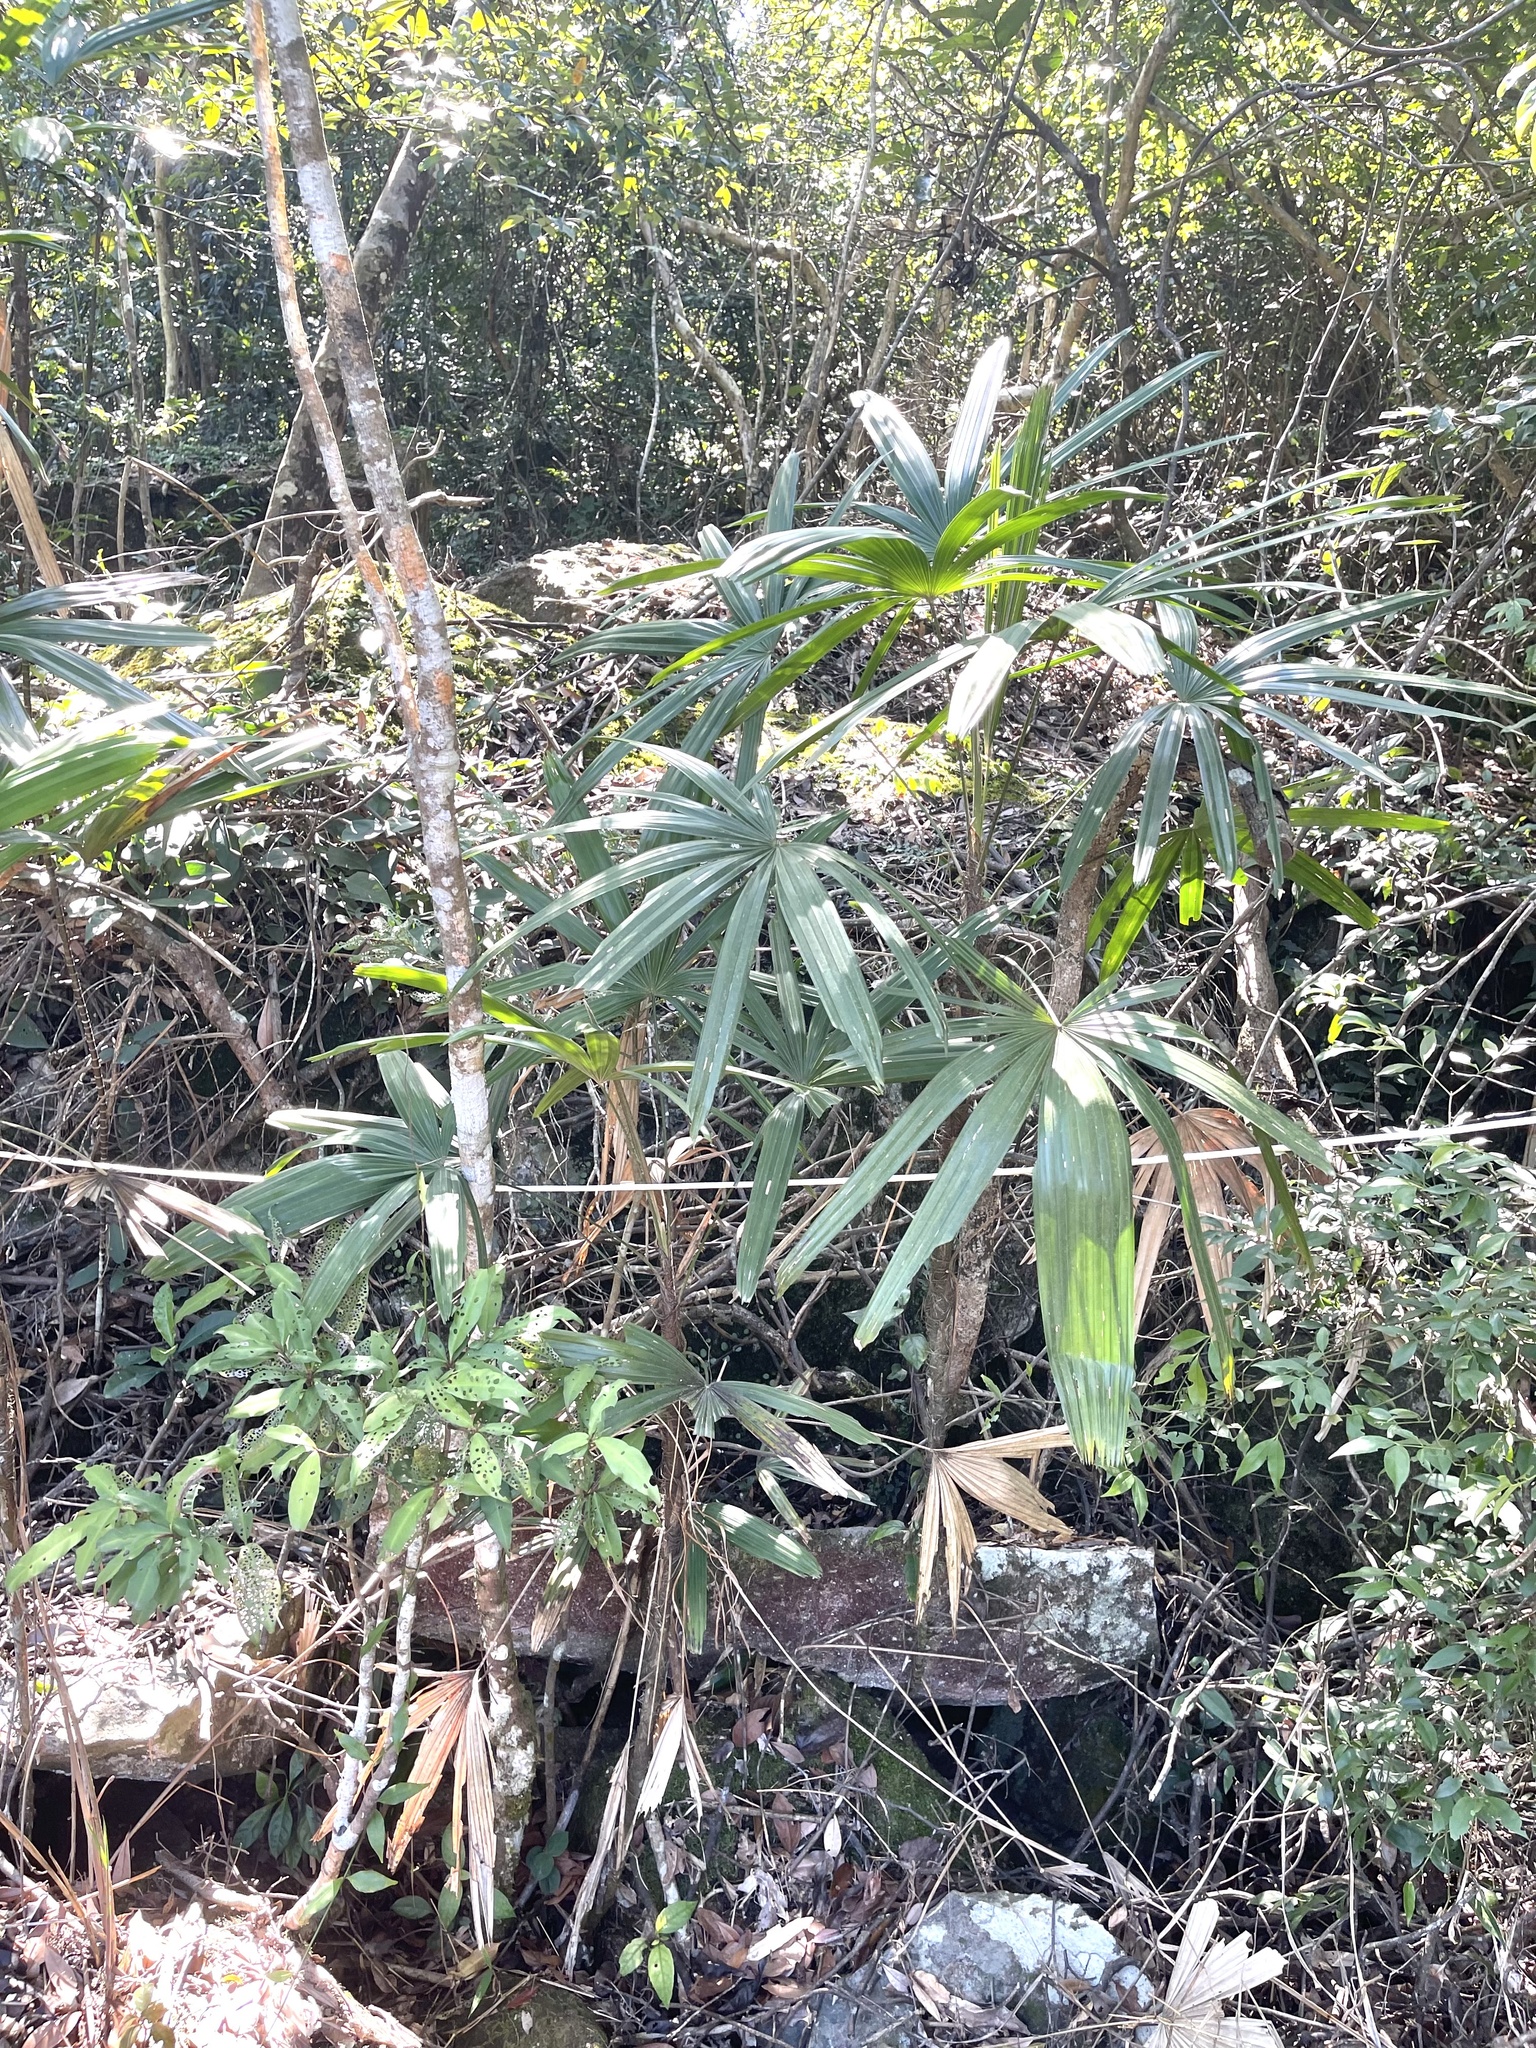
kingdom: Plantae
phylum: Tracheophyta
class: Liliopsida
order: Arecales
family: Arecaceae
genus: Rhapis
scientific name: Rhapis excelsa
